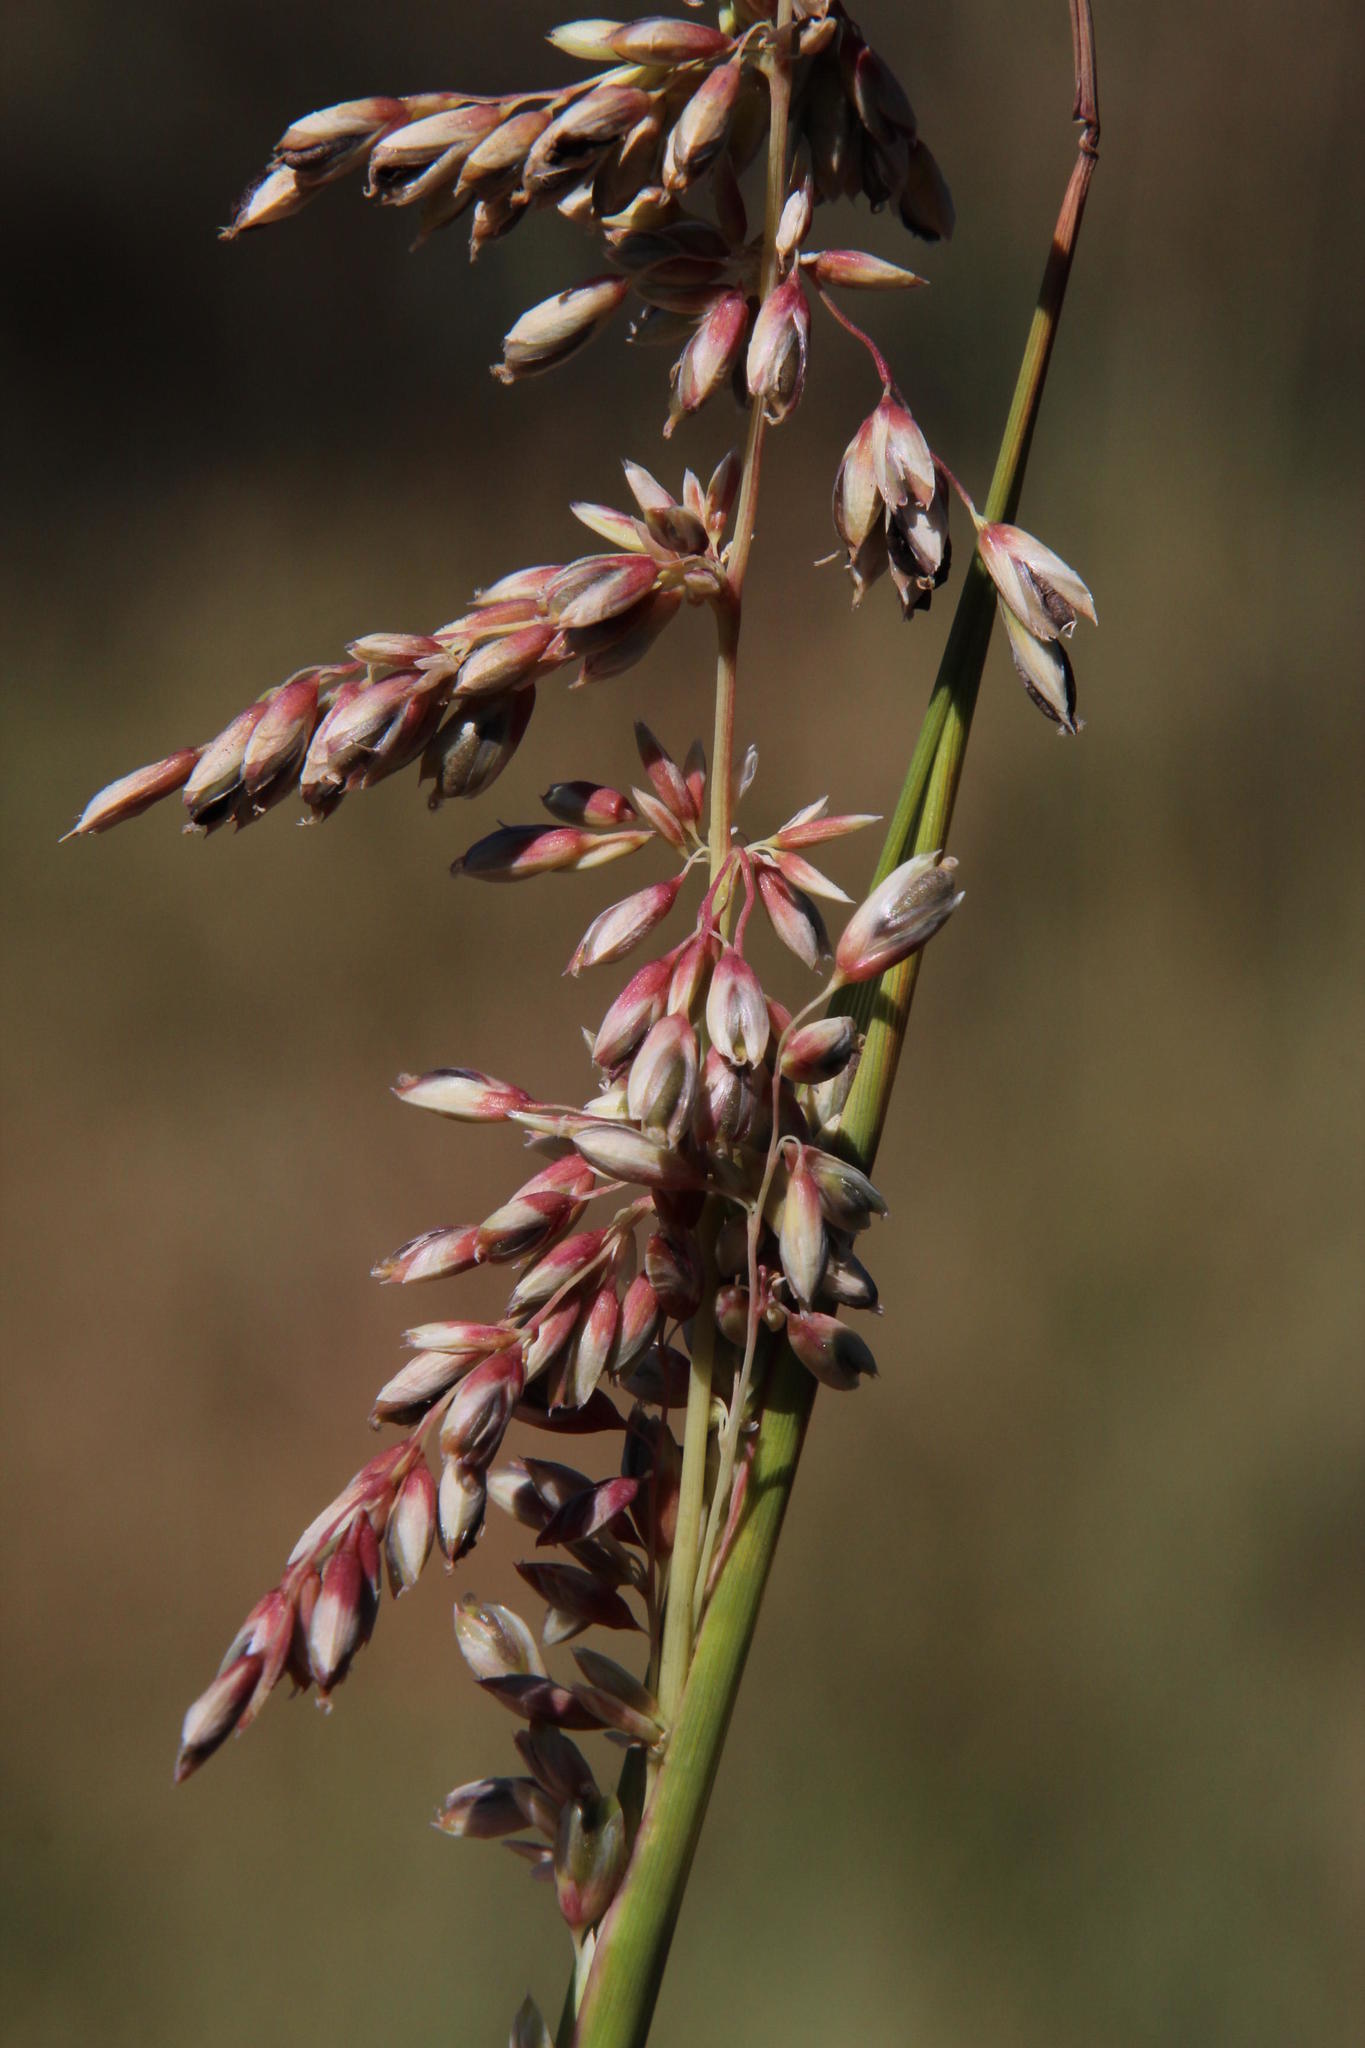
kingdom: Plantae
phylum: Tracheophyta
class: Liliopsida
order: Poales
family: Poaceae
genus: Ehrharta
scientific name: Ehrharta calycina
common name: Perennial veldtgrass
